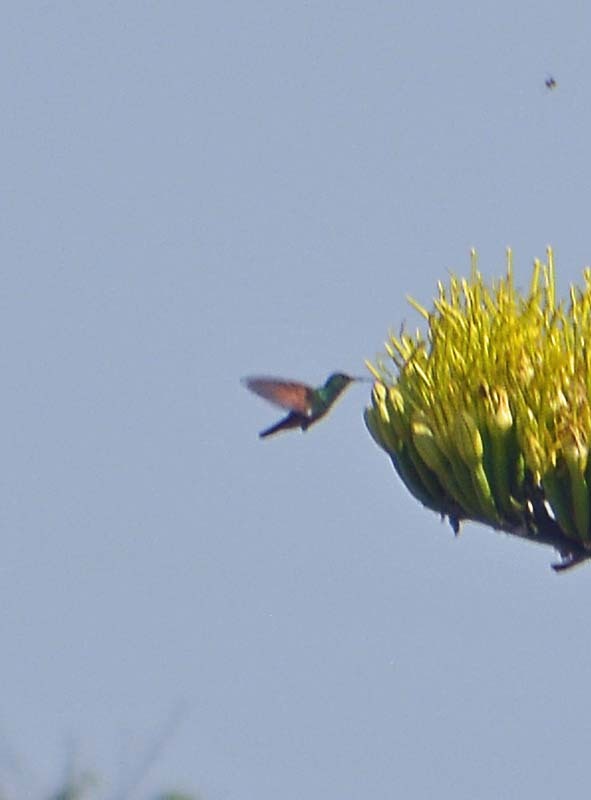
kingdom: Animalia
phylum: Chordata
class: Aves
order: Apodiformes
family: Trochilidae
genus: Saucerottia
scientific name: Saucerottia beryllina
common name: Berylline hummingbird
